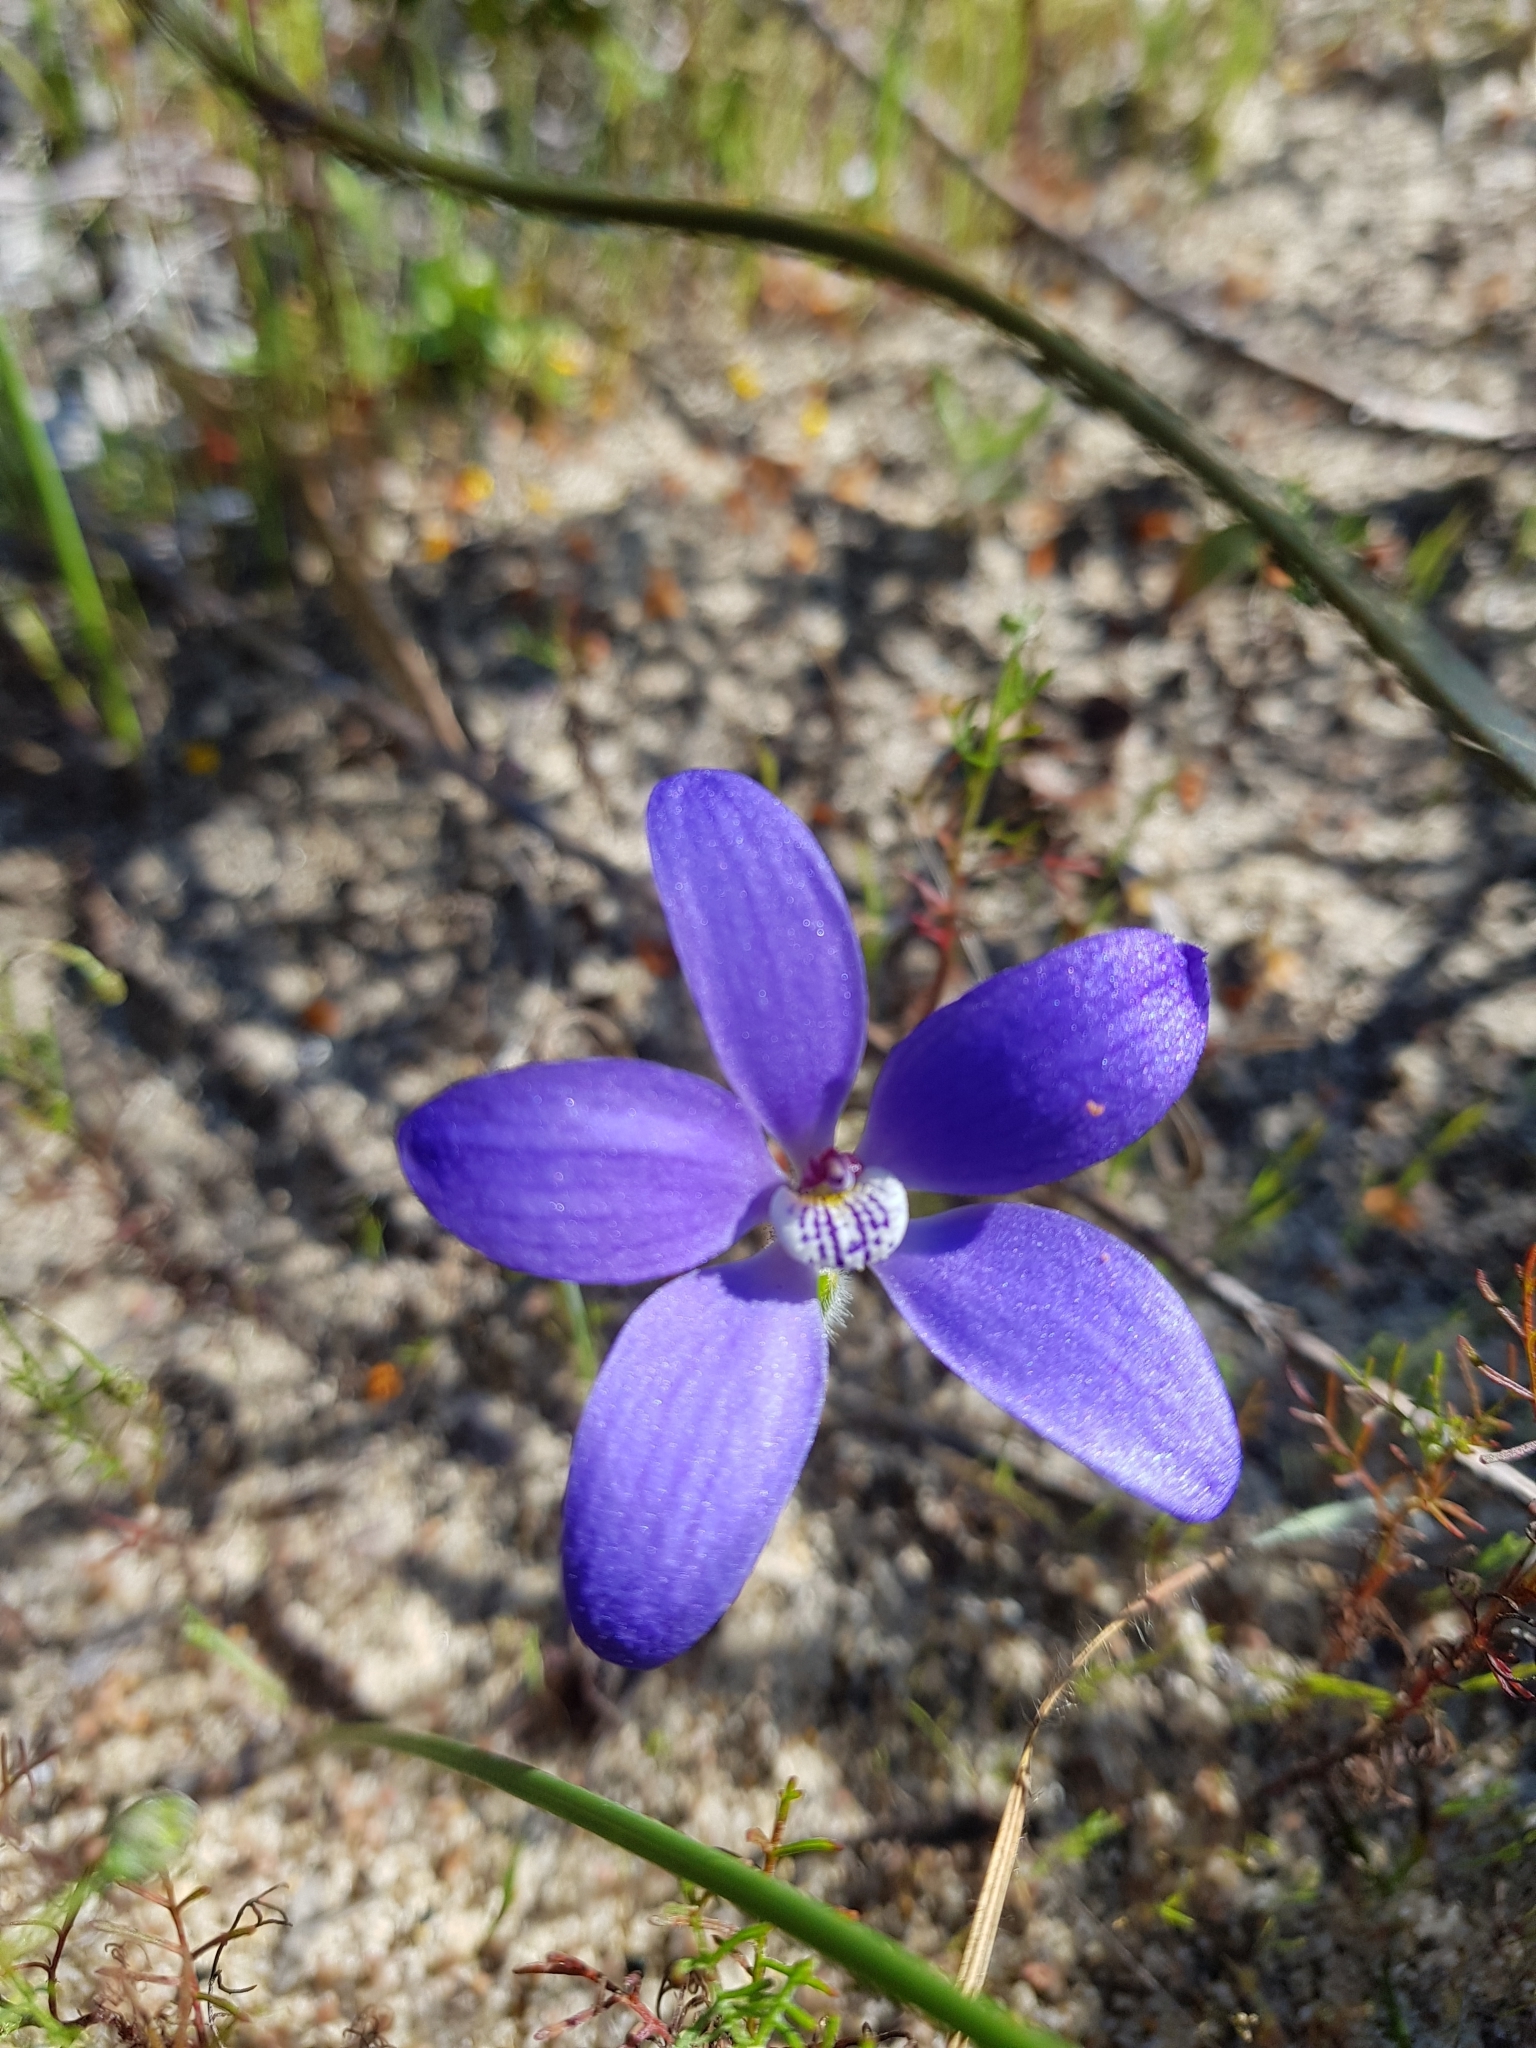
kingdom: Plantae
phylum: Tracheophyta
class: Liliopsida
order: Asparagales
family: Orchidaceae
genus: Caladenia
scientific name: Caladenia gemmata
